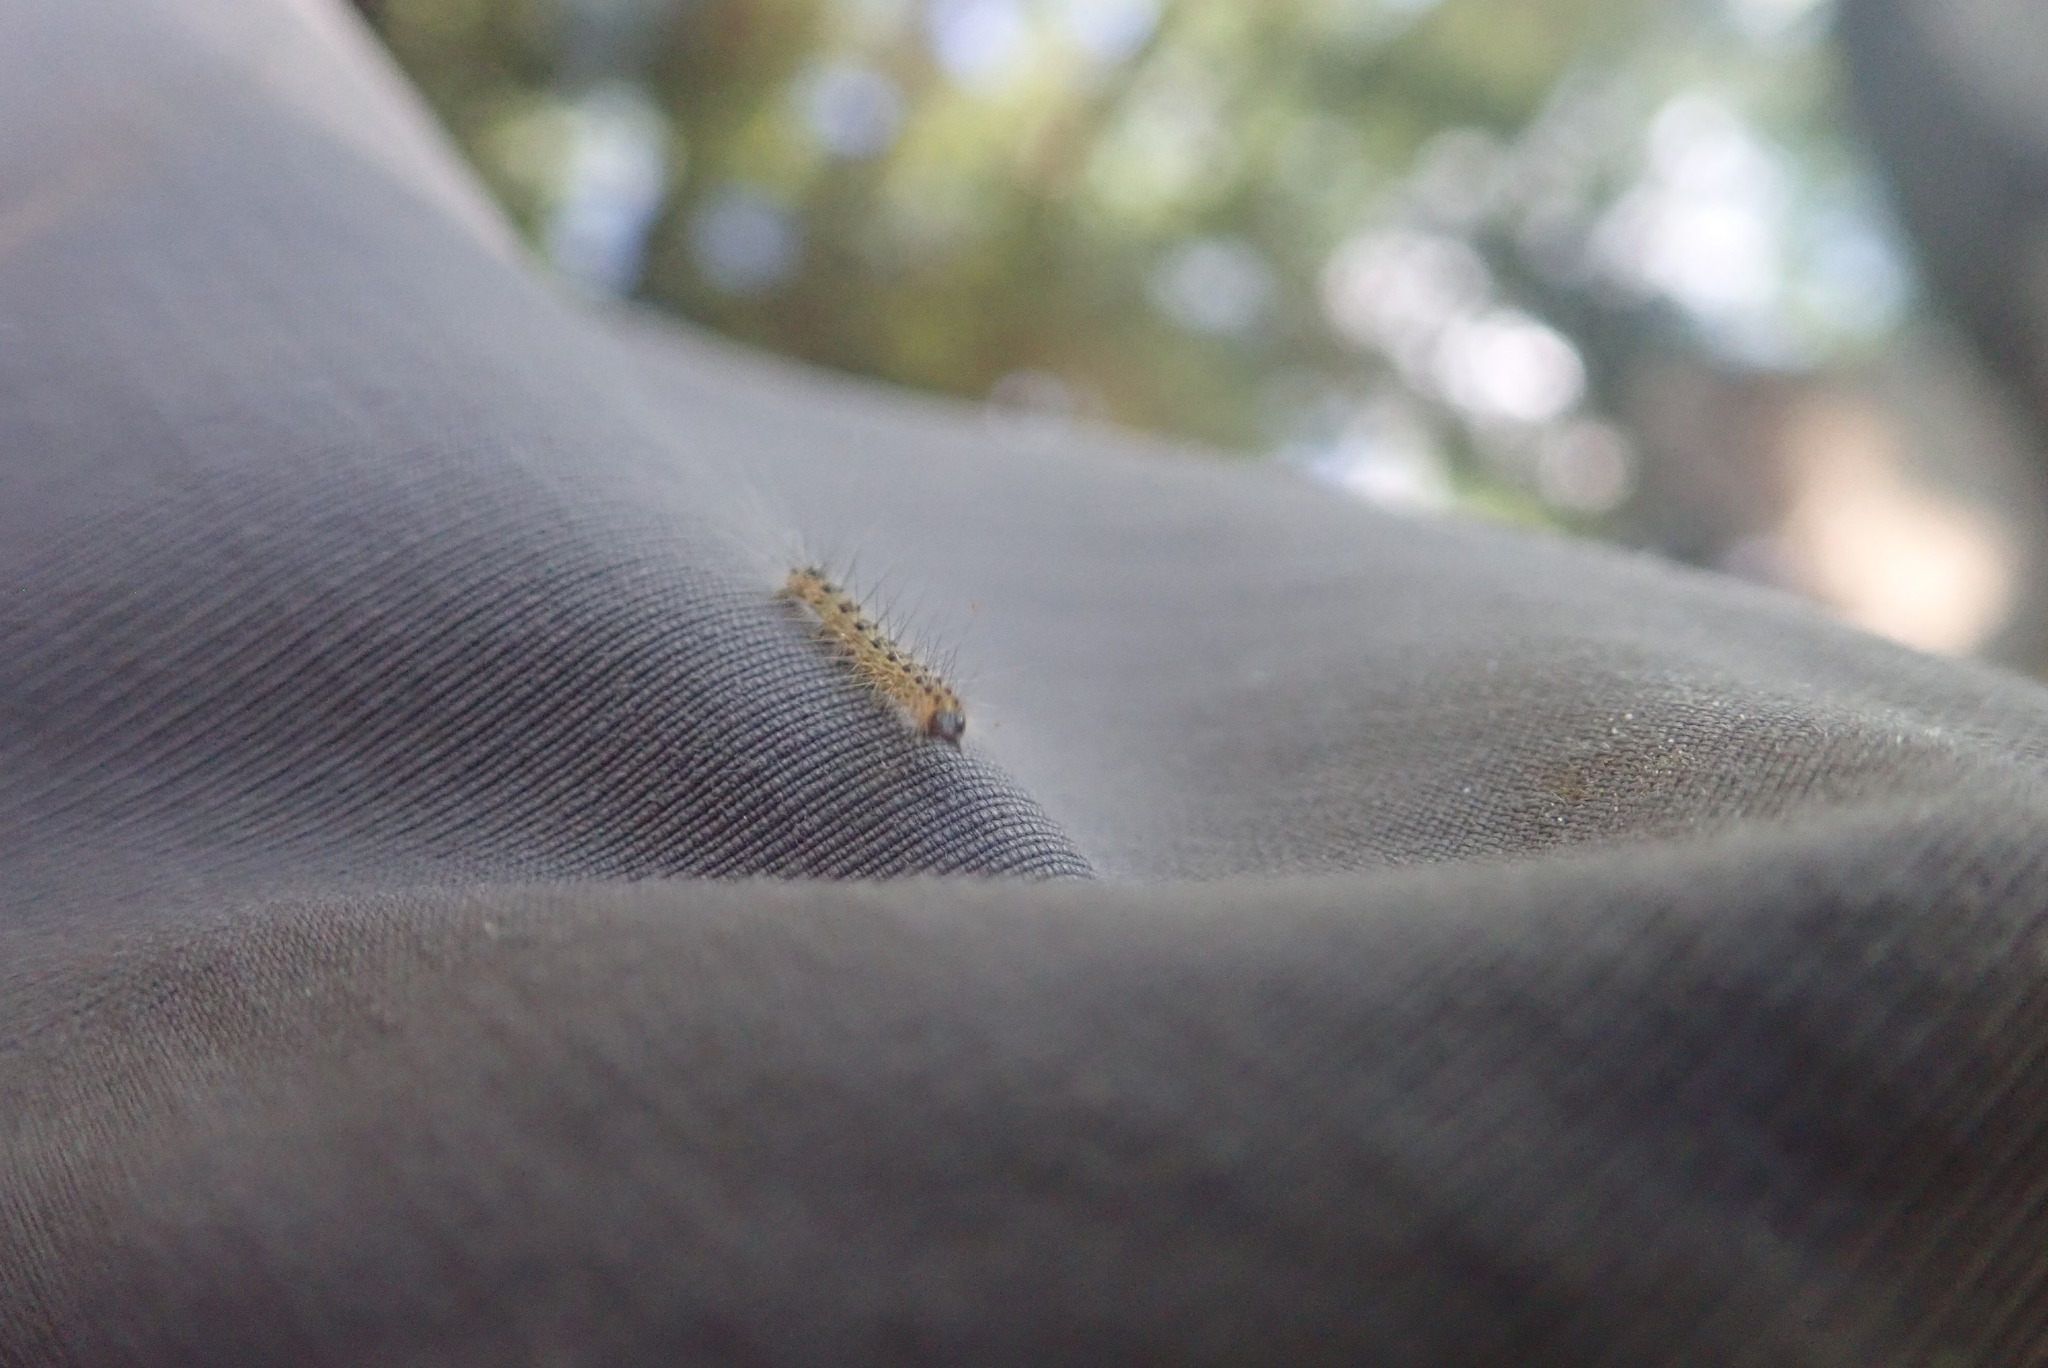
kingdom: Animalia
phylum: Arthropoda
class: Insecta
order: Lepidoptera
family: Erebidae
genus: Hyphantria
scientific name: Hyphantria cunea
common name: American white moth
